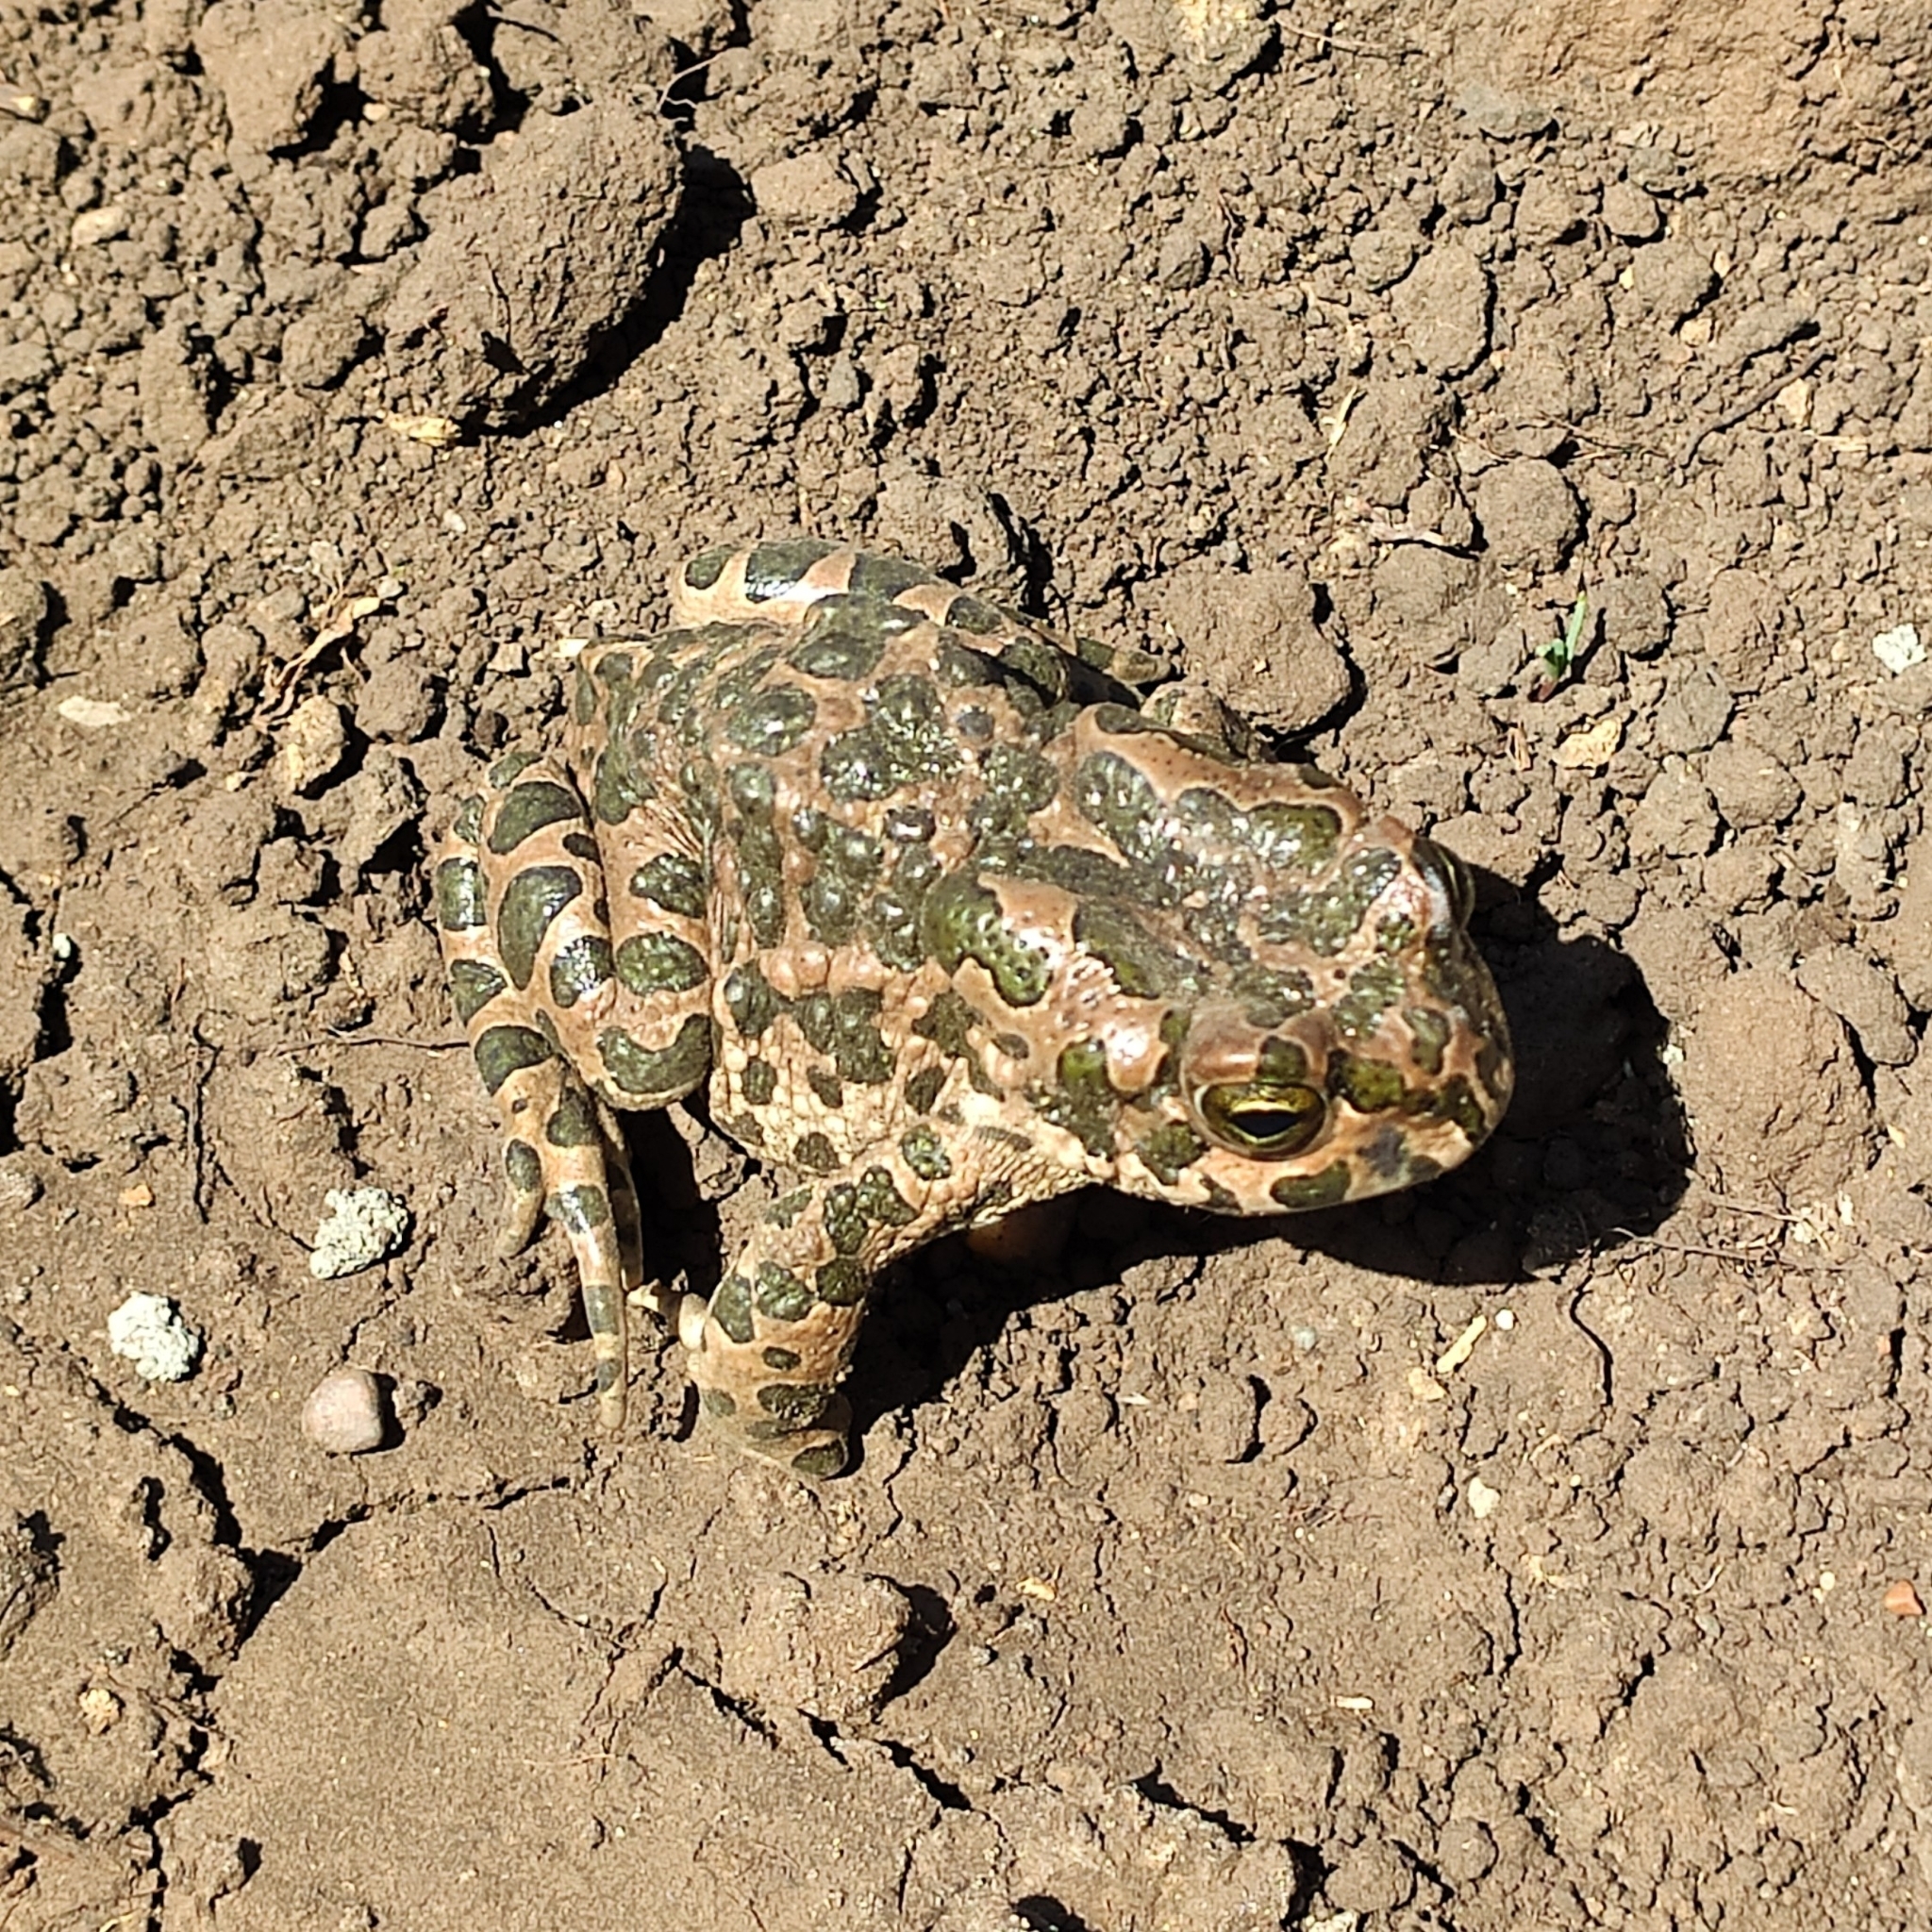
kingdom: Animalia
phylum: Chordata
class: Amphibia
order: Anura
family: Bufonidae
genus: Bufotes
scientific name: Bufotes viridis
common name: European green toad
